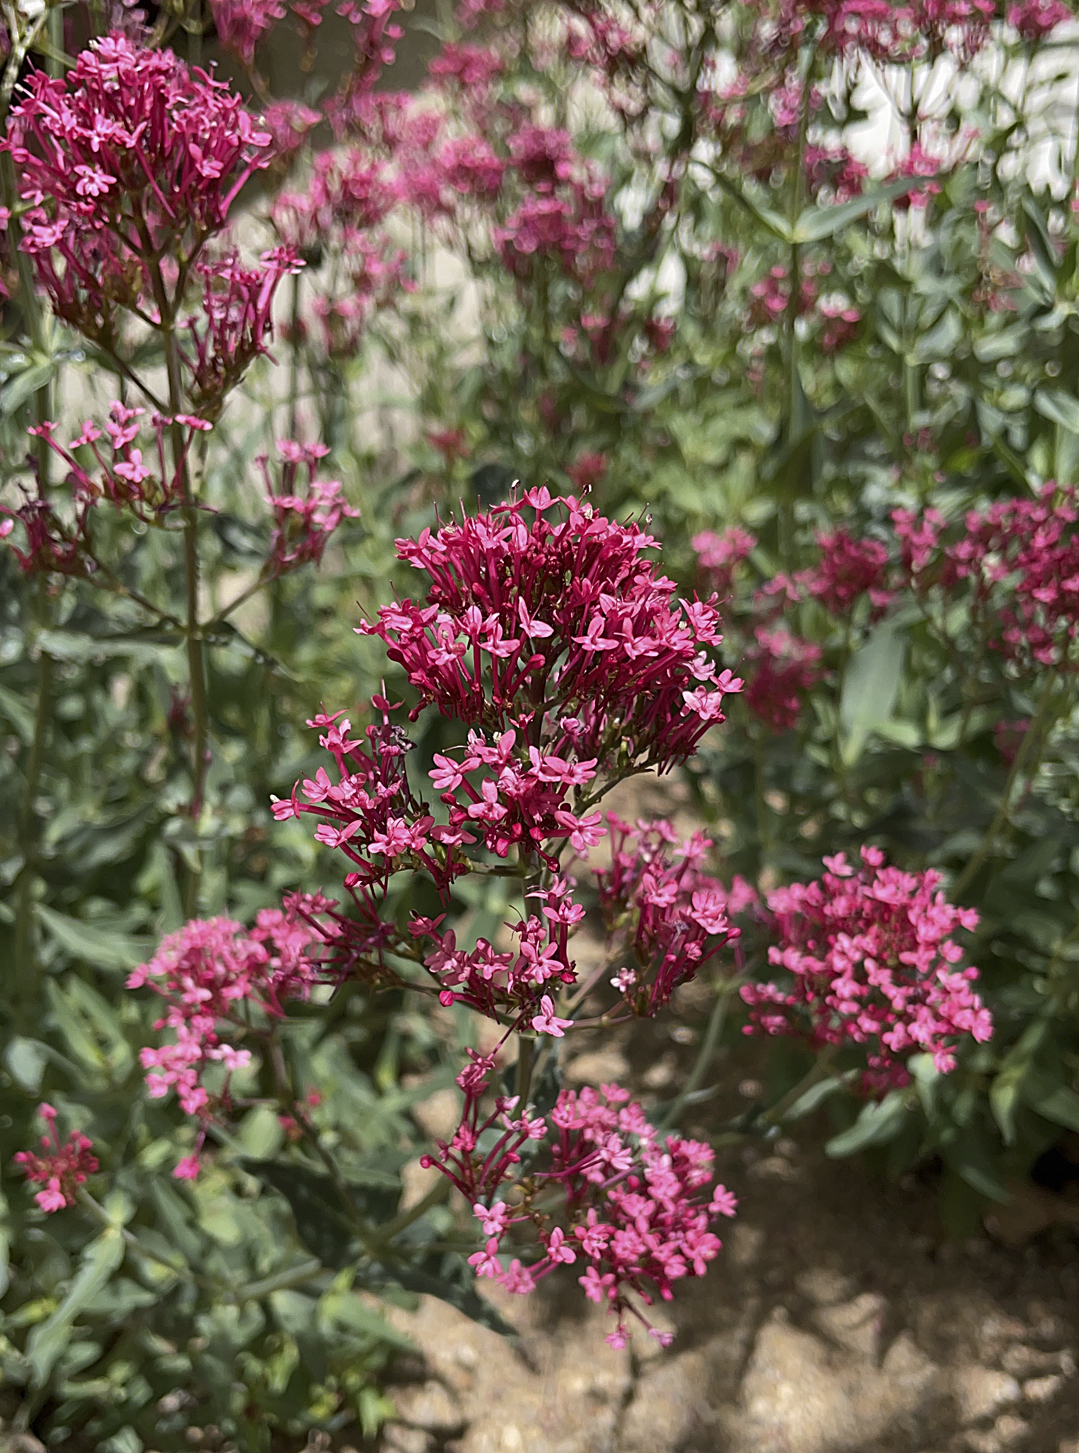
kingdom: Plantae
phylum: Tracheophyta
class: Magnoliopsida
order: Dipsacales
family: Caprifoliaceae
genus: Centranthus
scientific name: Centranthus ruber
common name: Red valerian
